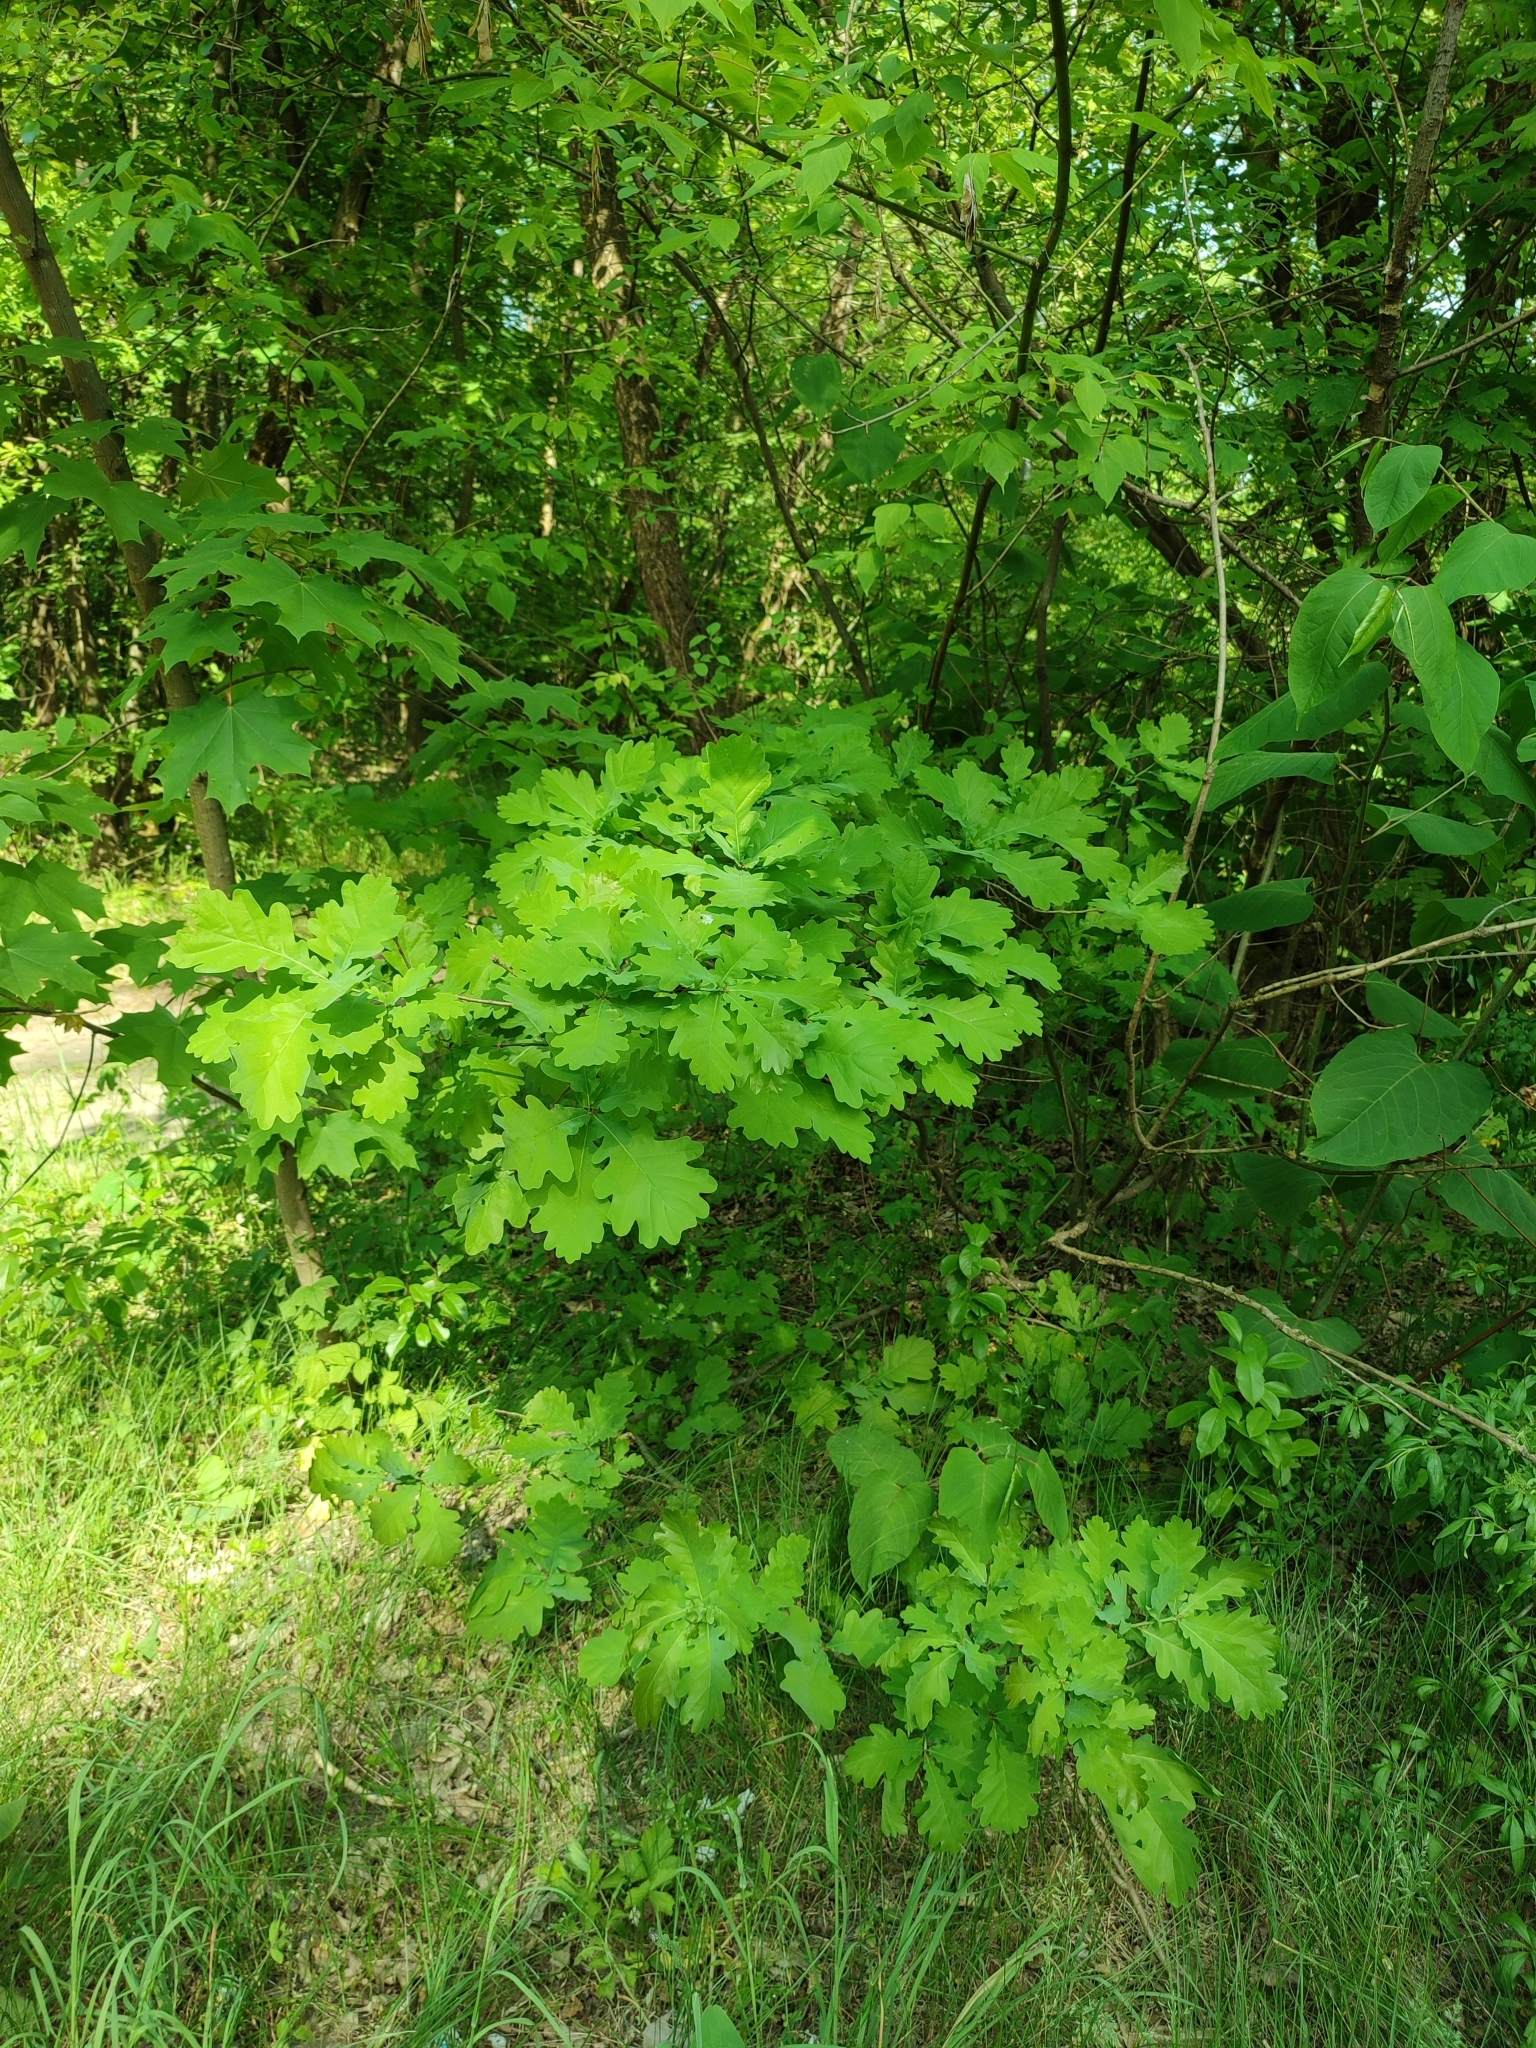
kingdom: Plantae
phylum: Tracheophyta
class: Magnoliopsida
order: Fagales
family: Fagaceae
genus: Quercus
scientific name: Quercus robur
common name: Pedunculate oak
